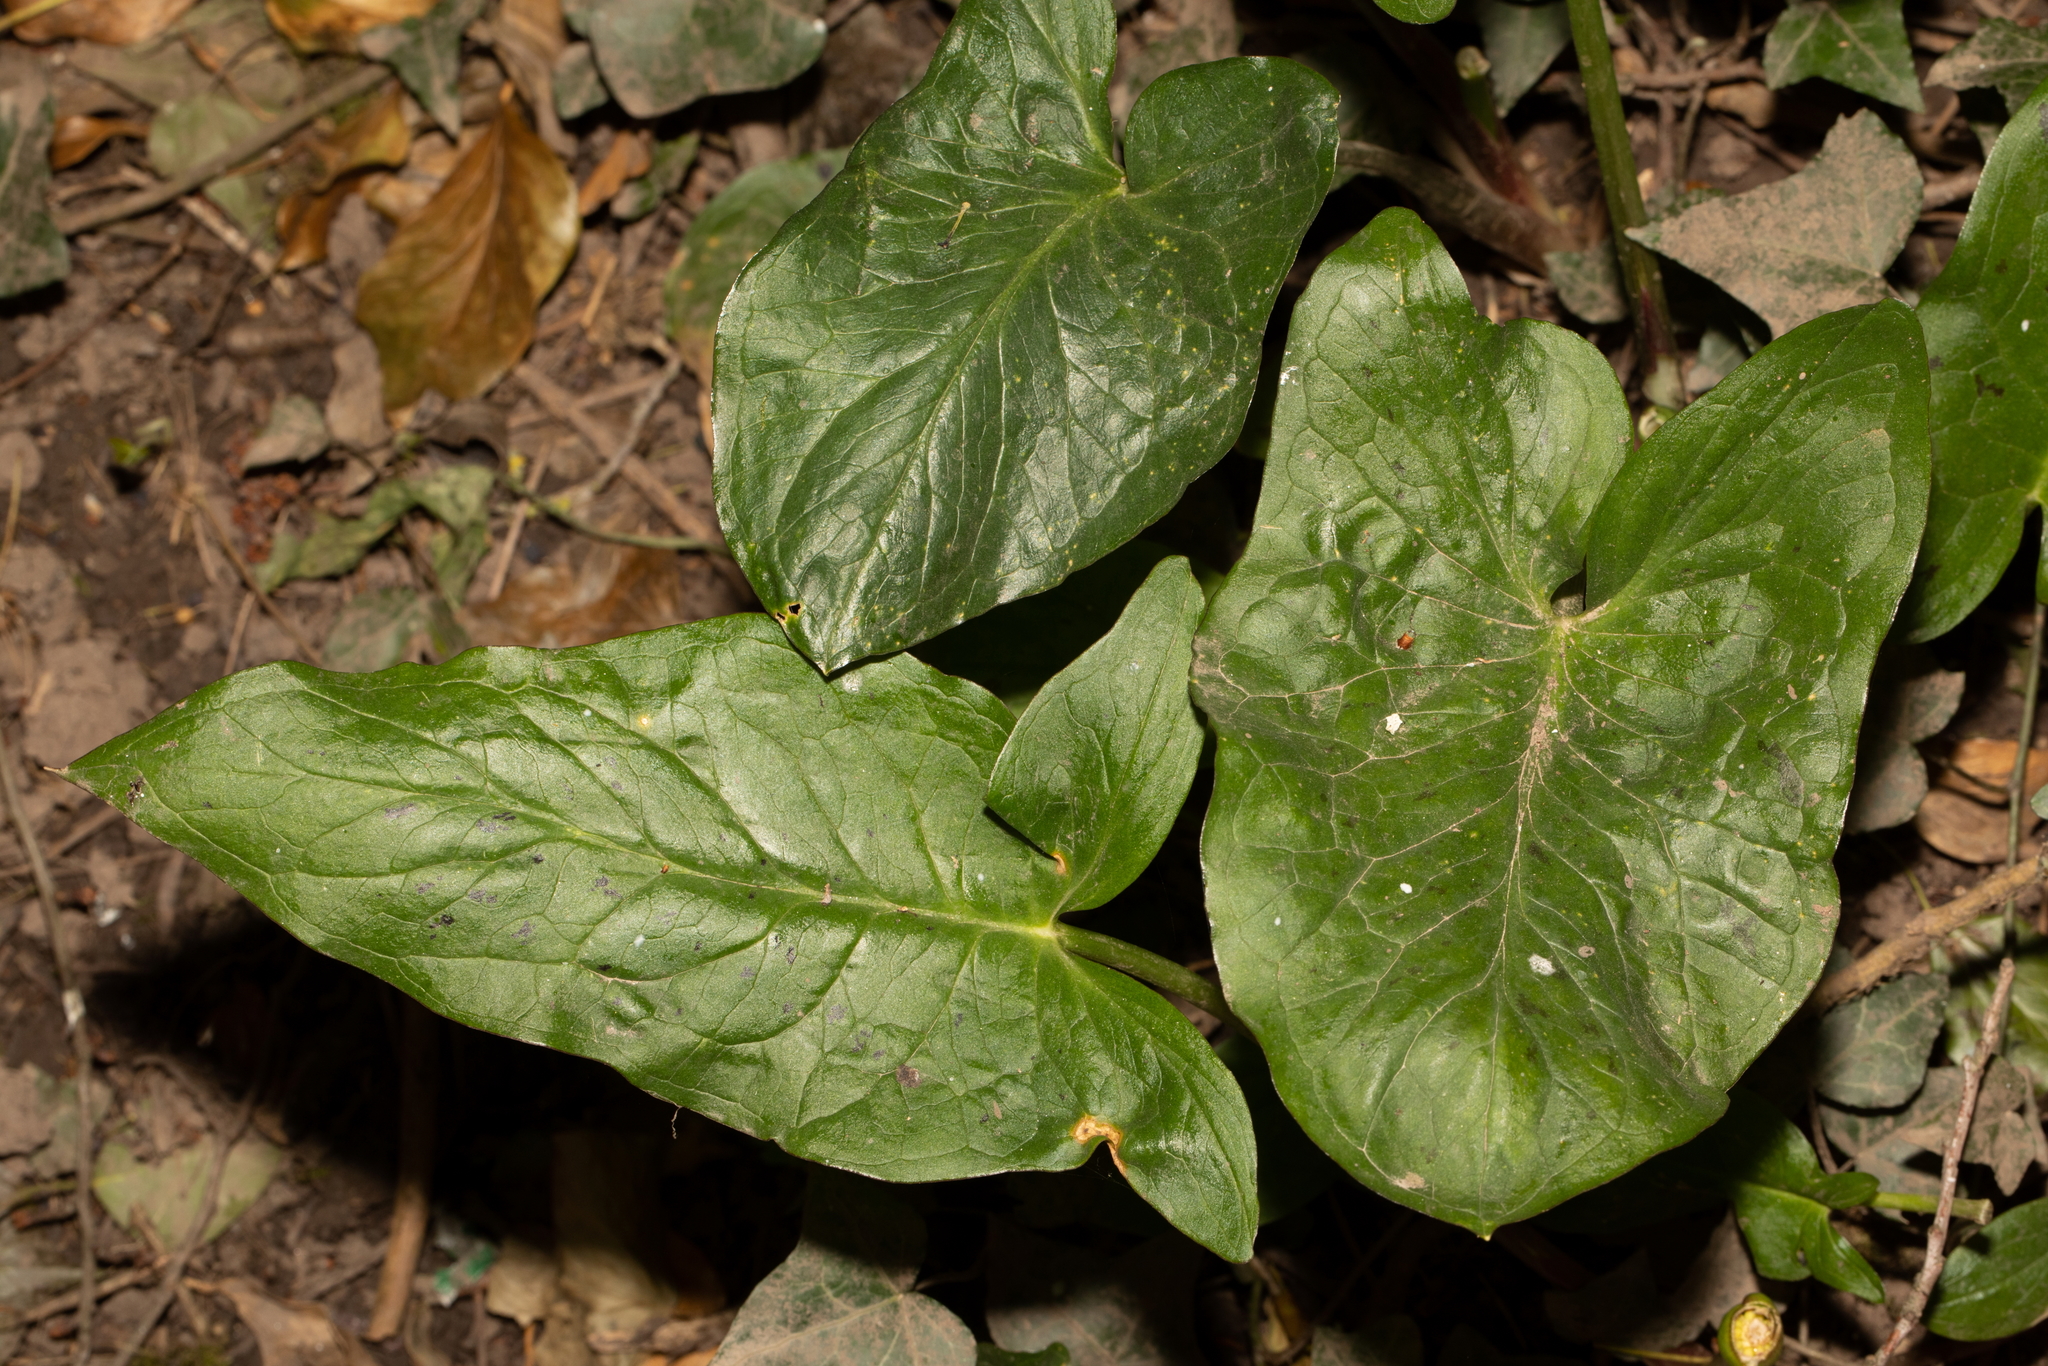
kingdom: Plantae
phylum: Tracheophyta
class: Liliopsida
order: Alismatales
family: Araceae
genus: Arum
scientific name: Arum maculatum
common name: Lords-and-ladies
